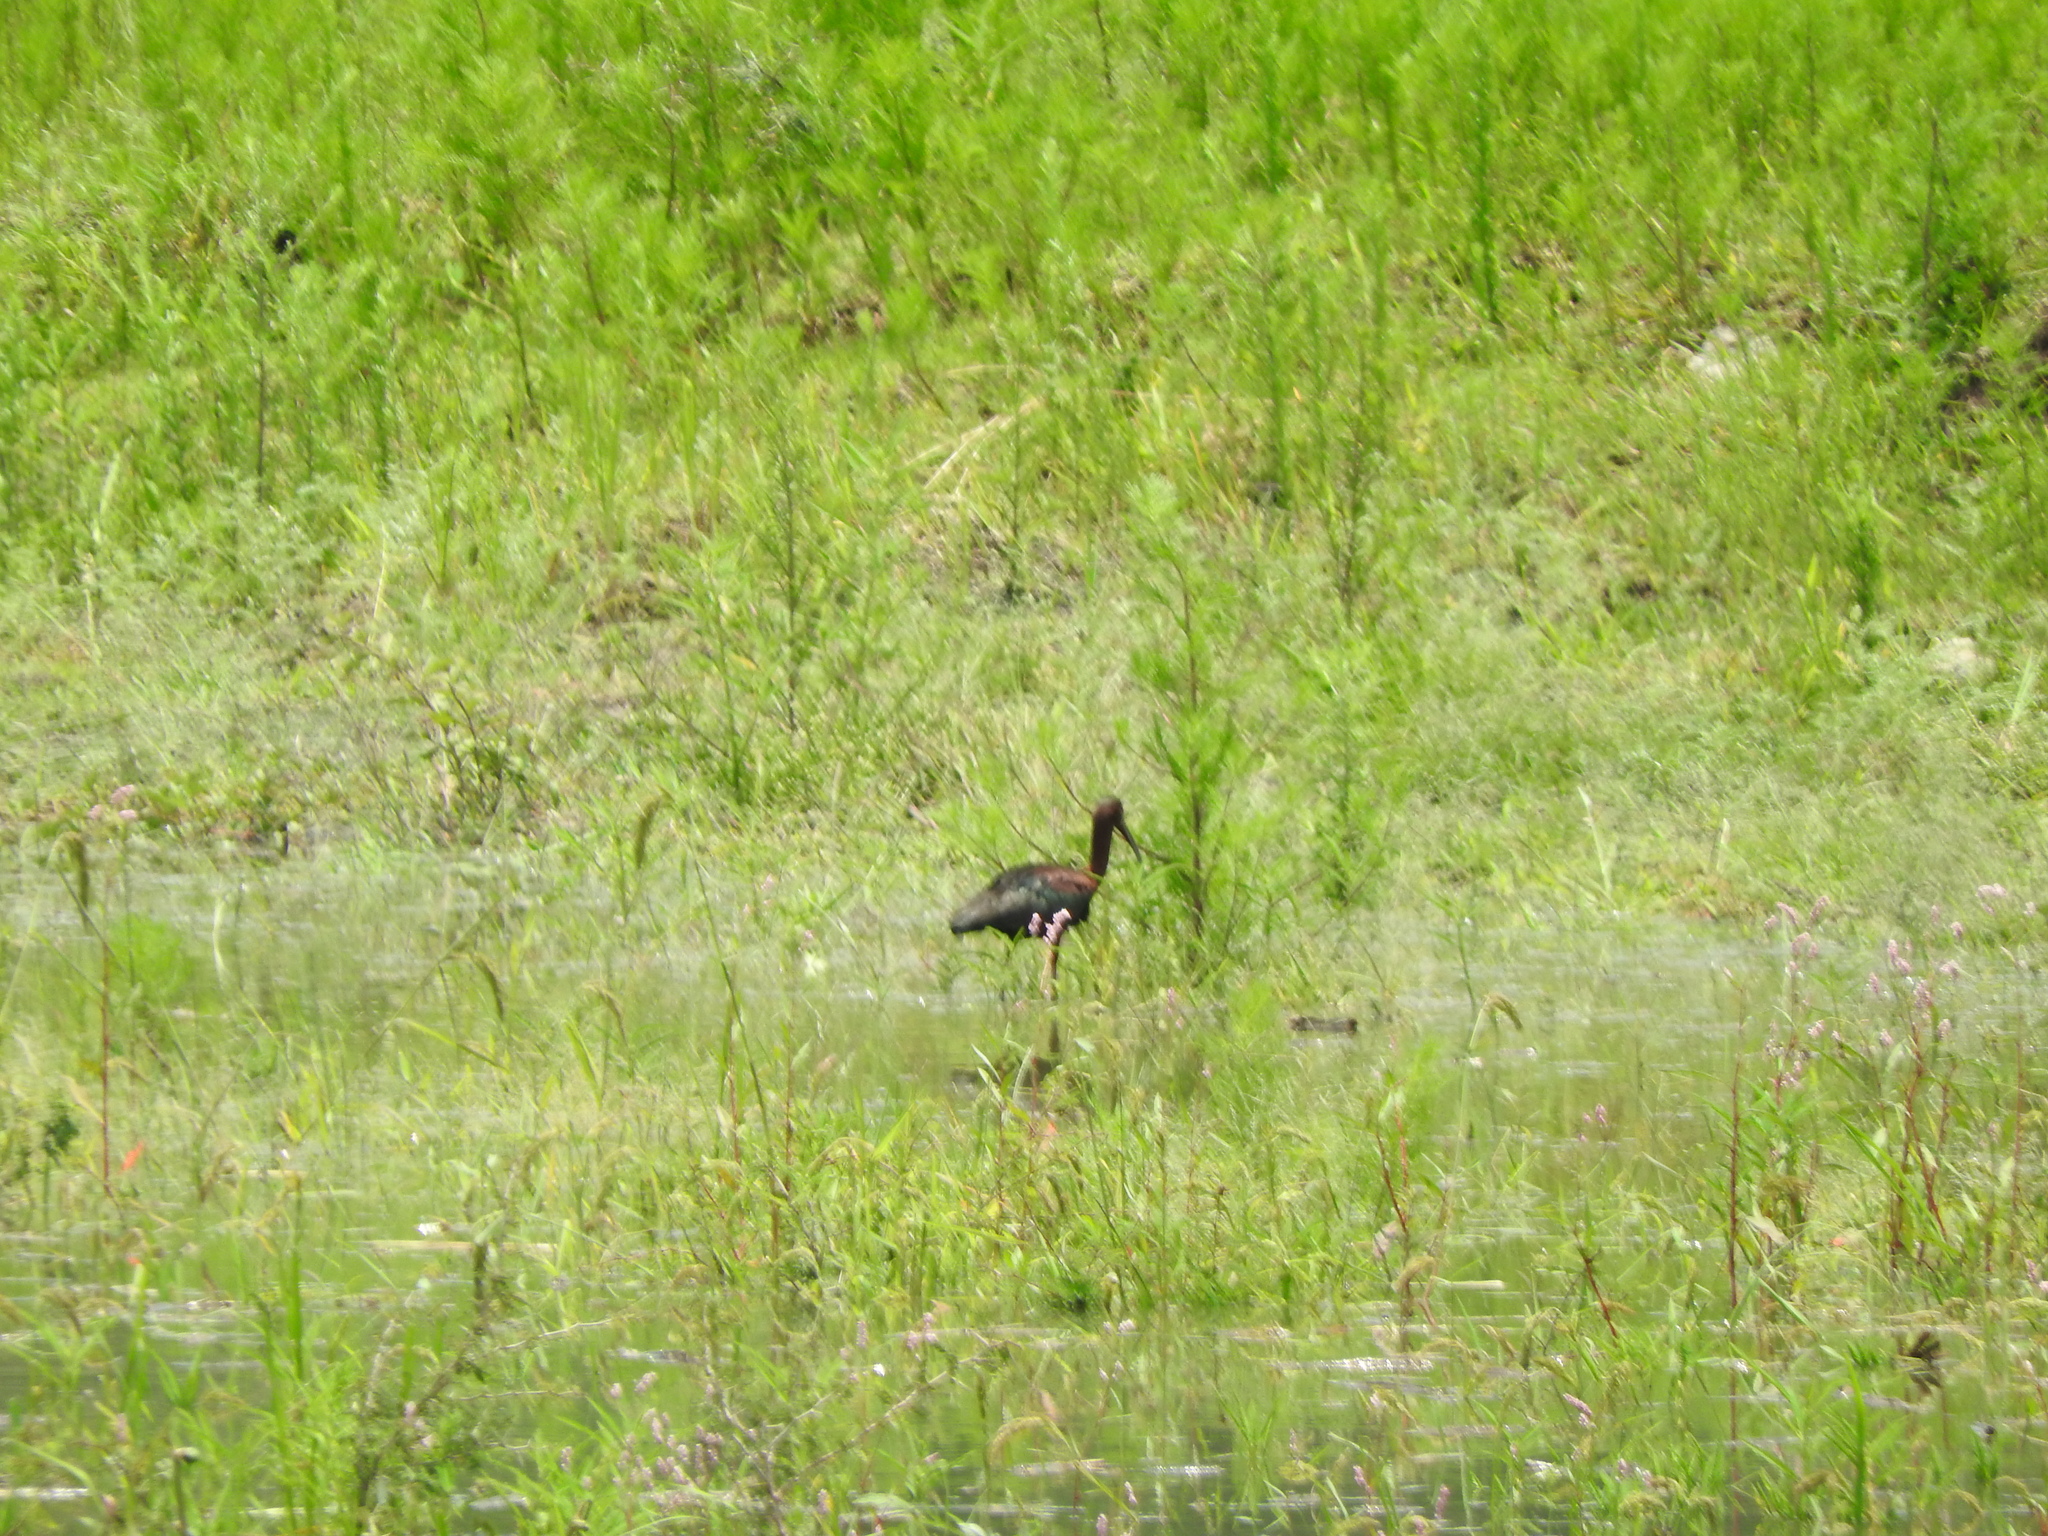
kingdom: Animalia
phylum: Chordata
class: Aves
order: Pelecaniformes
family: Threskiornithidae
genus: Plegadis
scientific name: Plegadis chihi
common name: White-faced ibis
